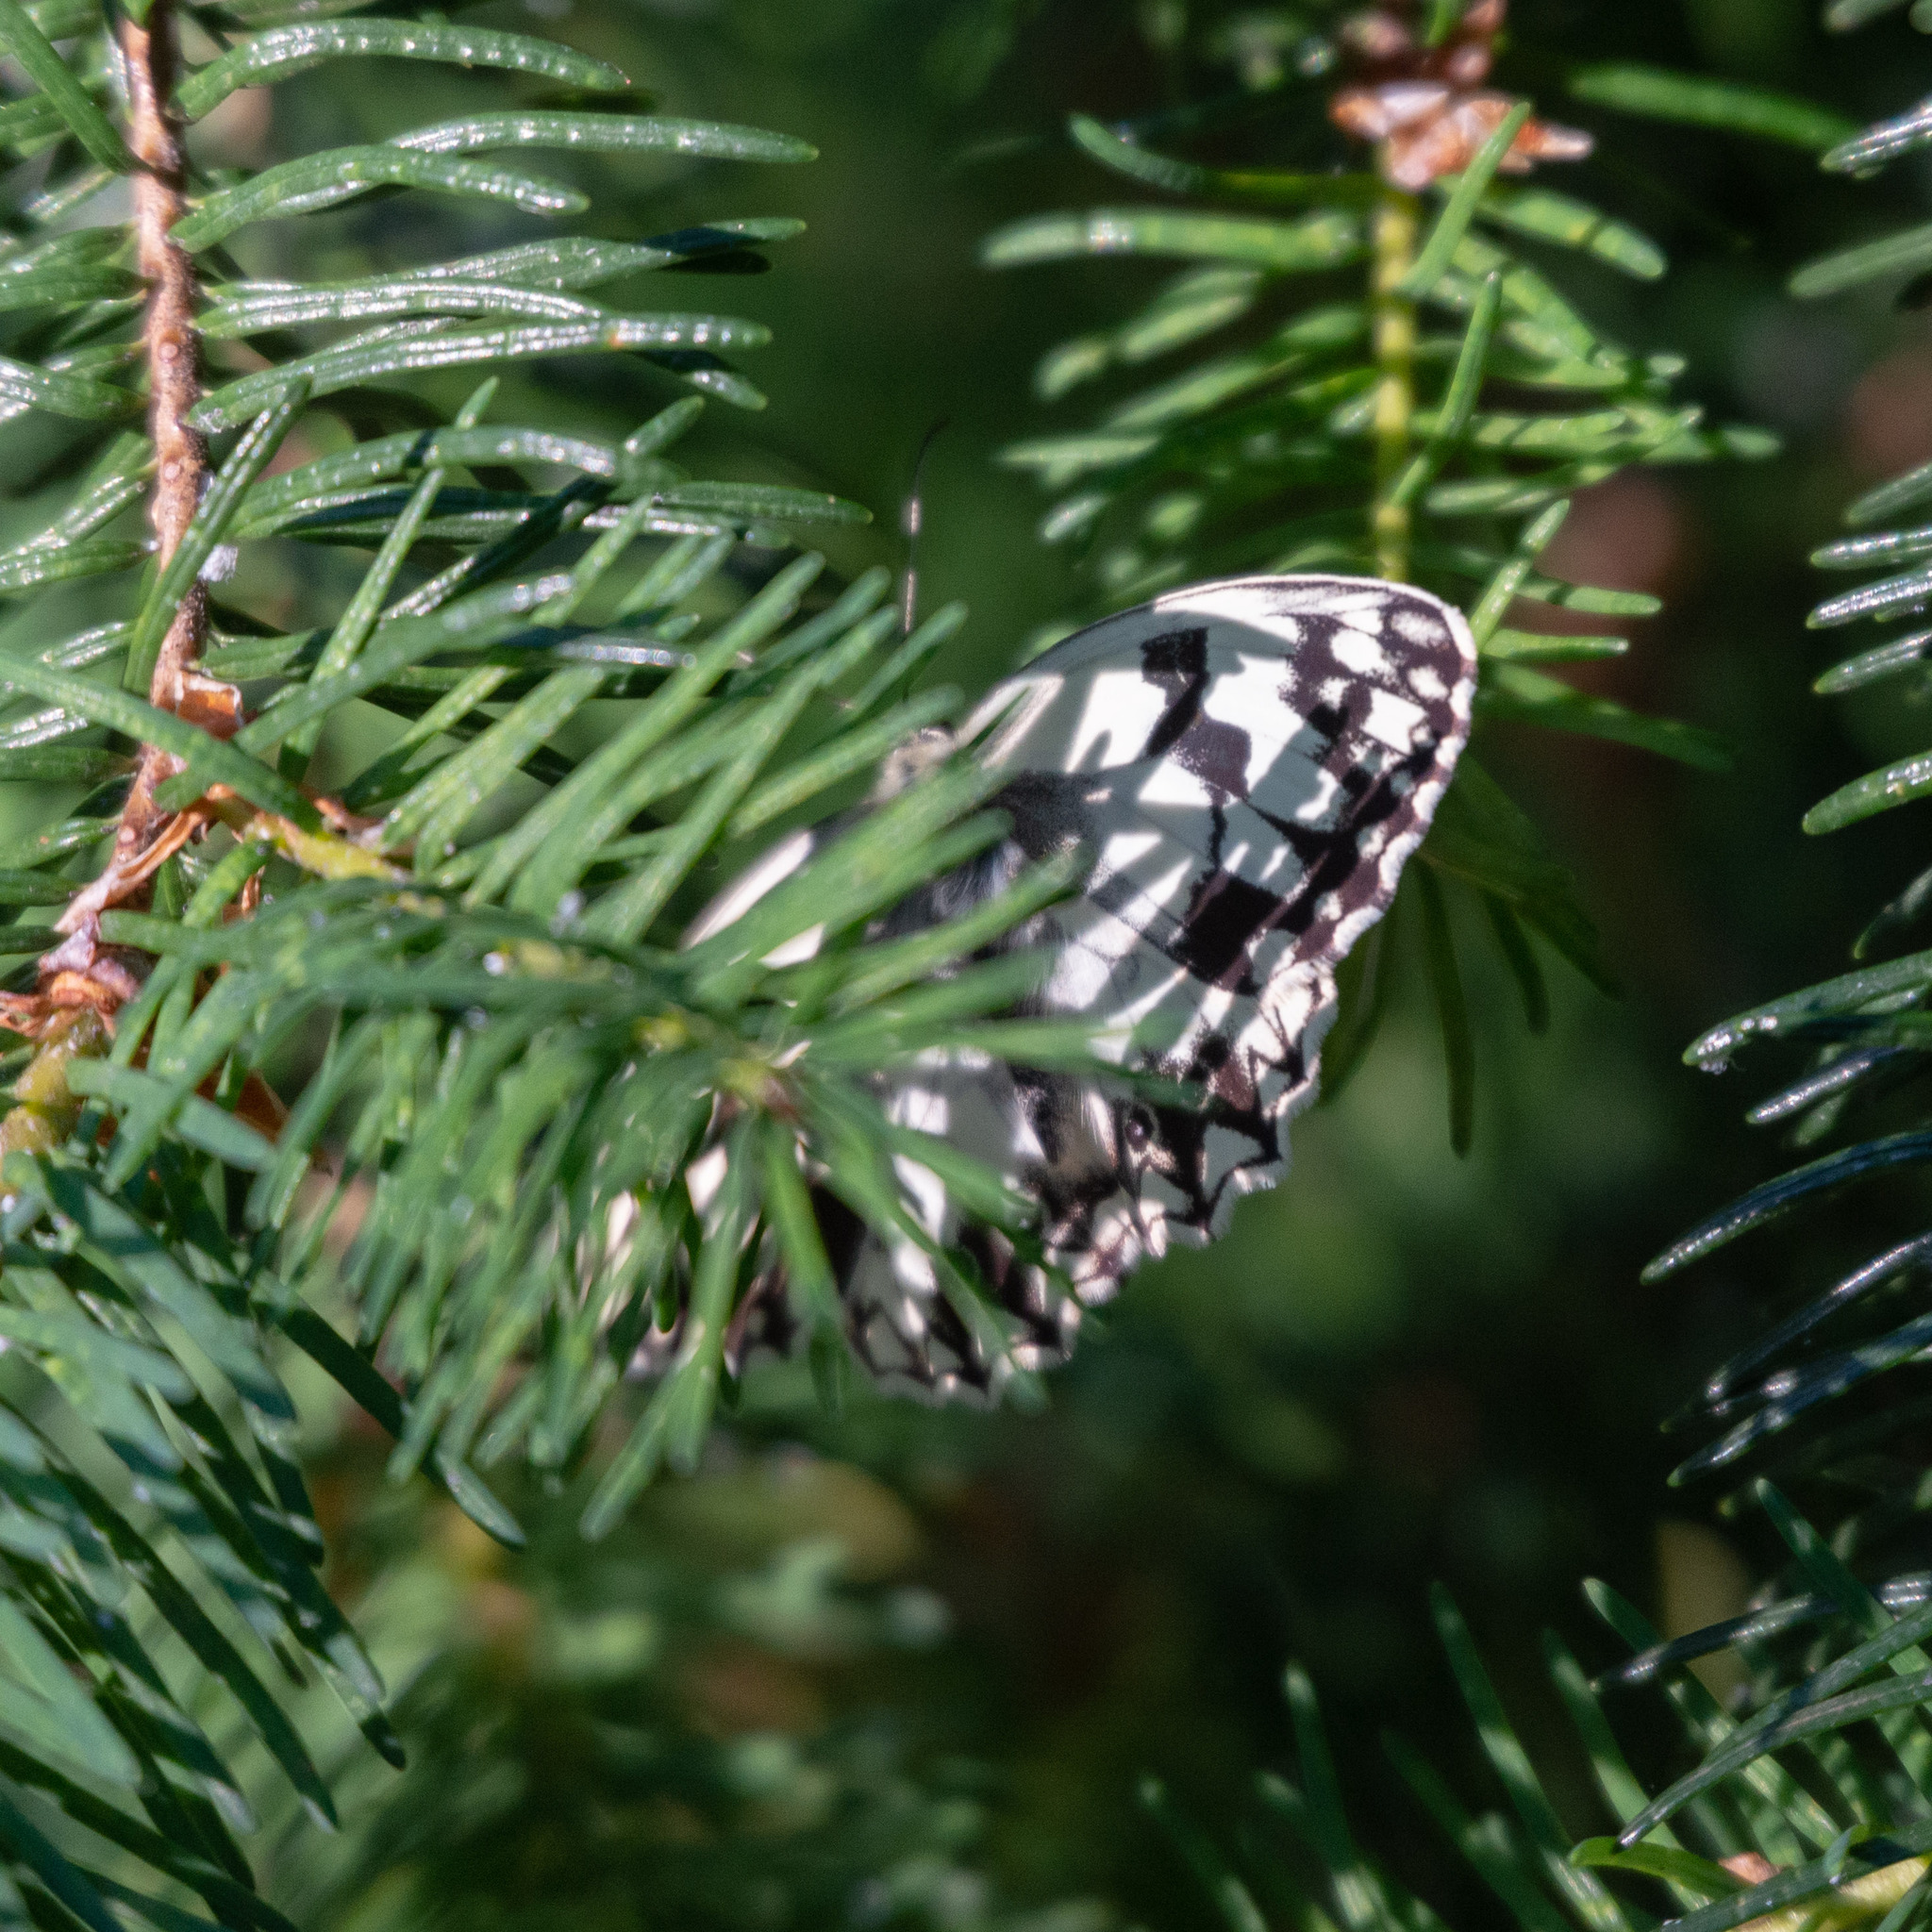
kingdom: Animalia
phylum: Arthropoda
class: Insecta
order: Lepidoptera
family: Nymphalidae
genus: Melanargia
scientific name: Melanargia lachesis
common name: Iberian marbled white
